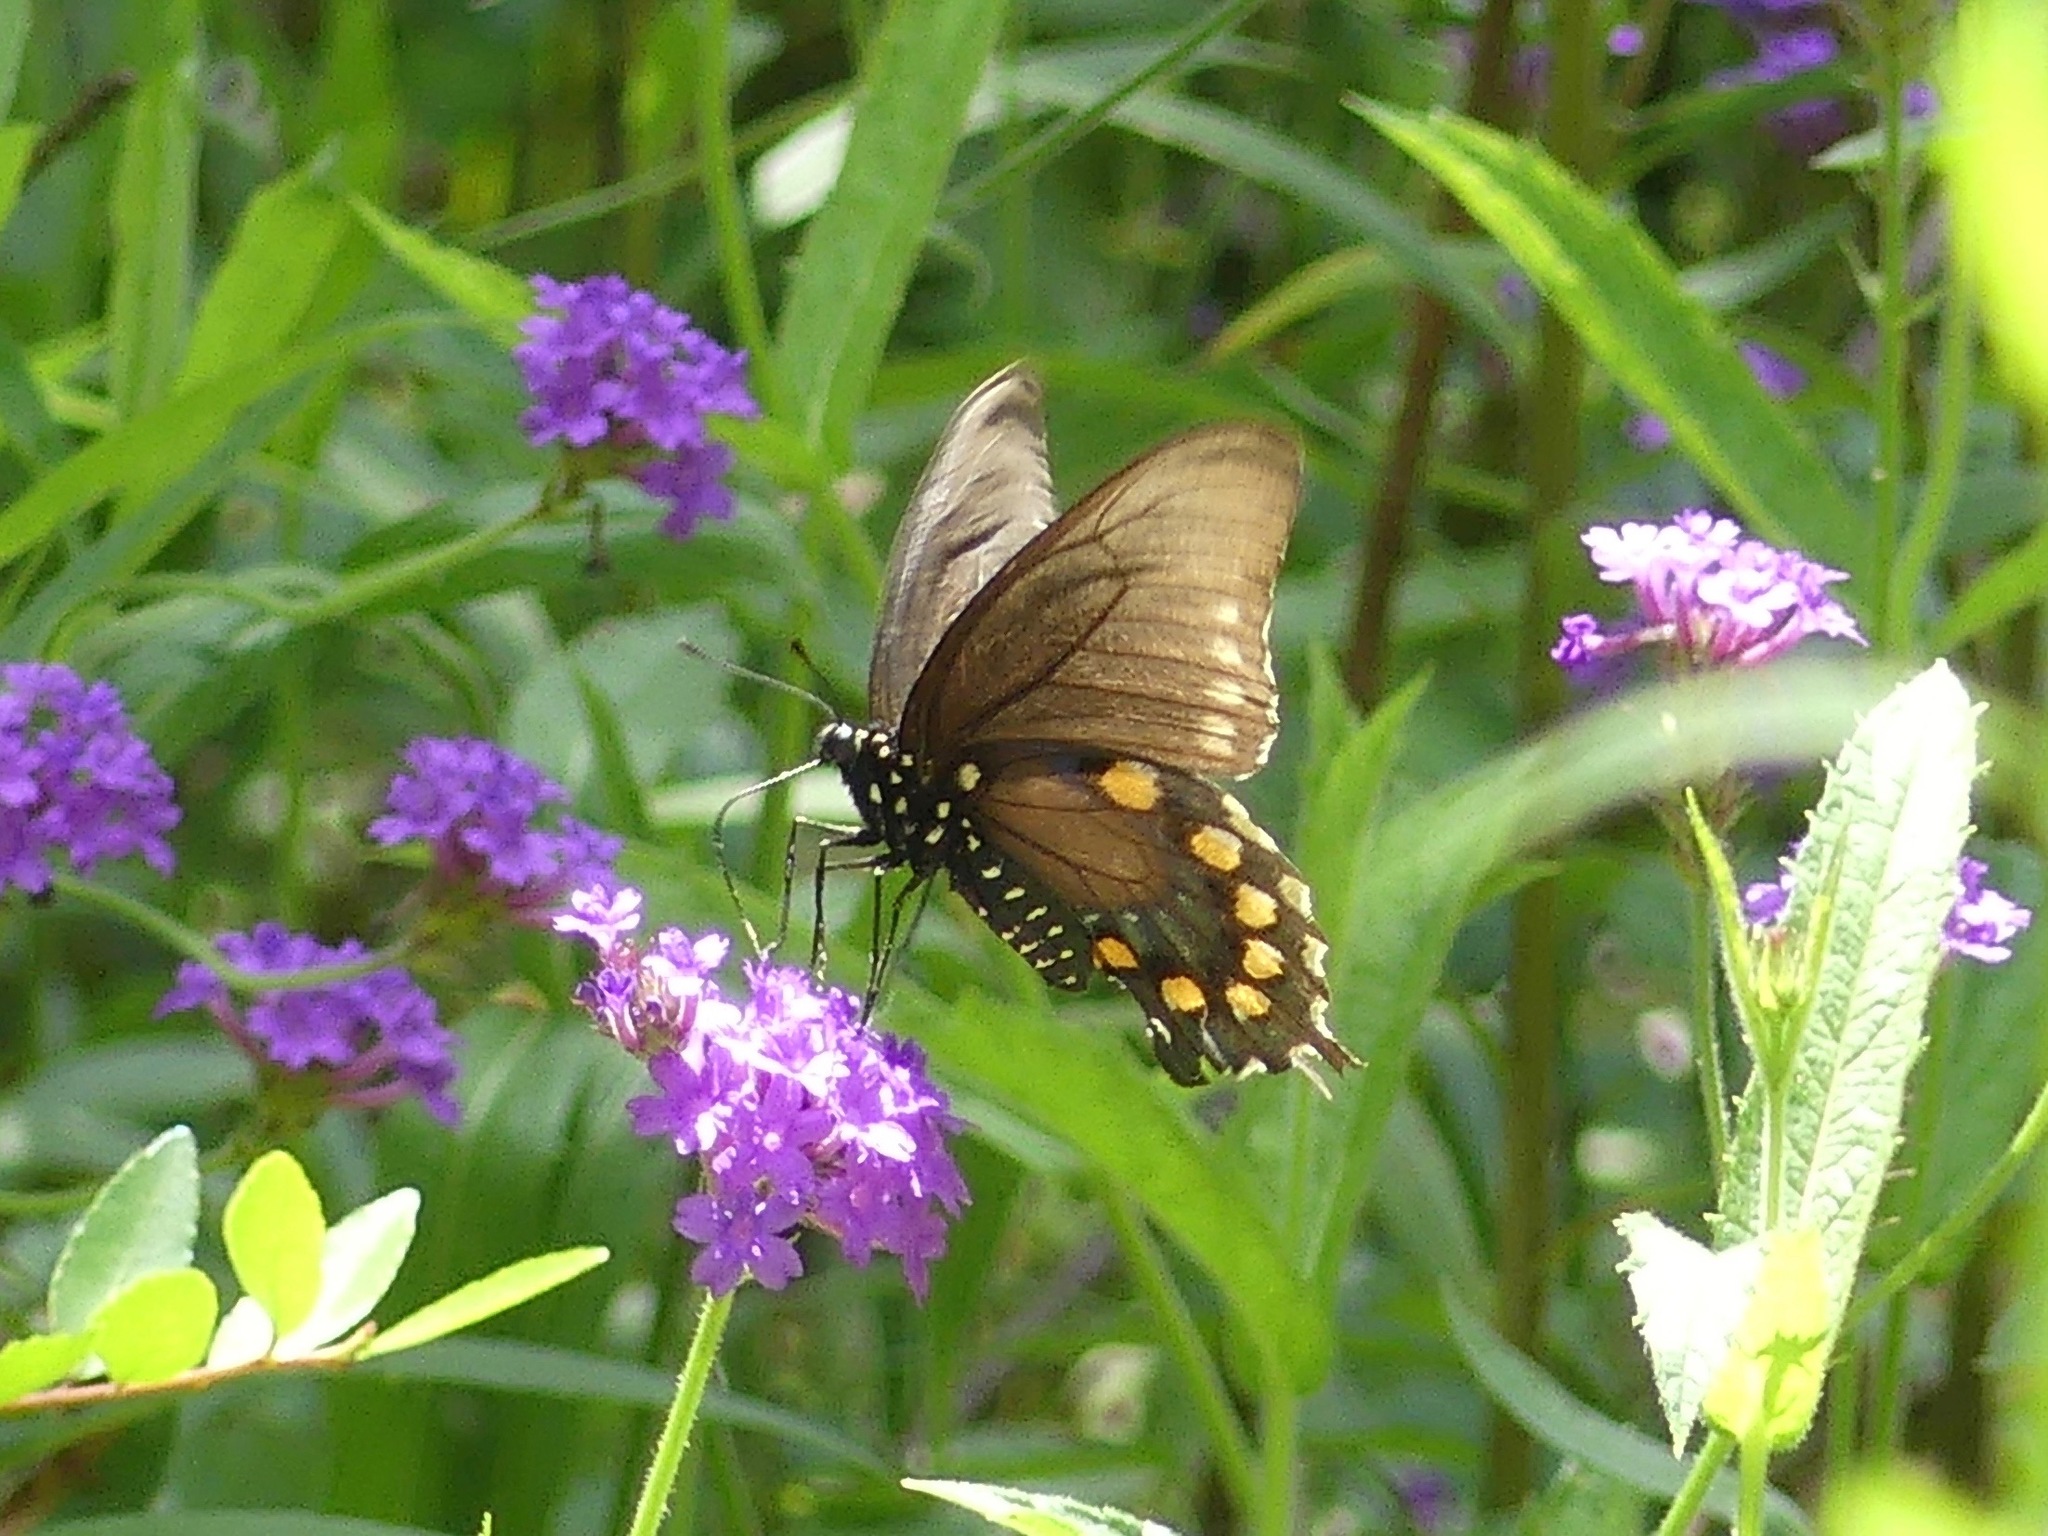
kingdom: Animalia
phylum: Arthropoda
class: Insecta
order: Lepidoptera
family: Papilionidae
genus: Battus
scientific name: Battus philenor
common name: Pipevine swallowtail
